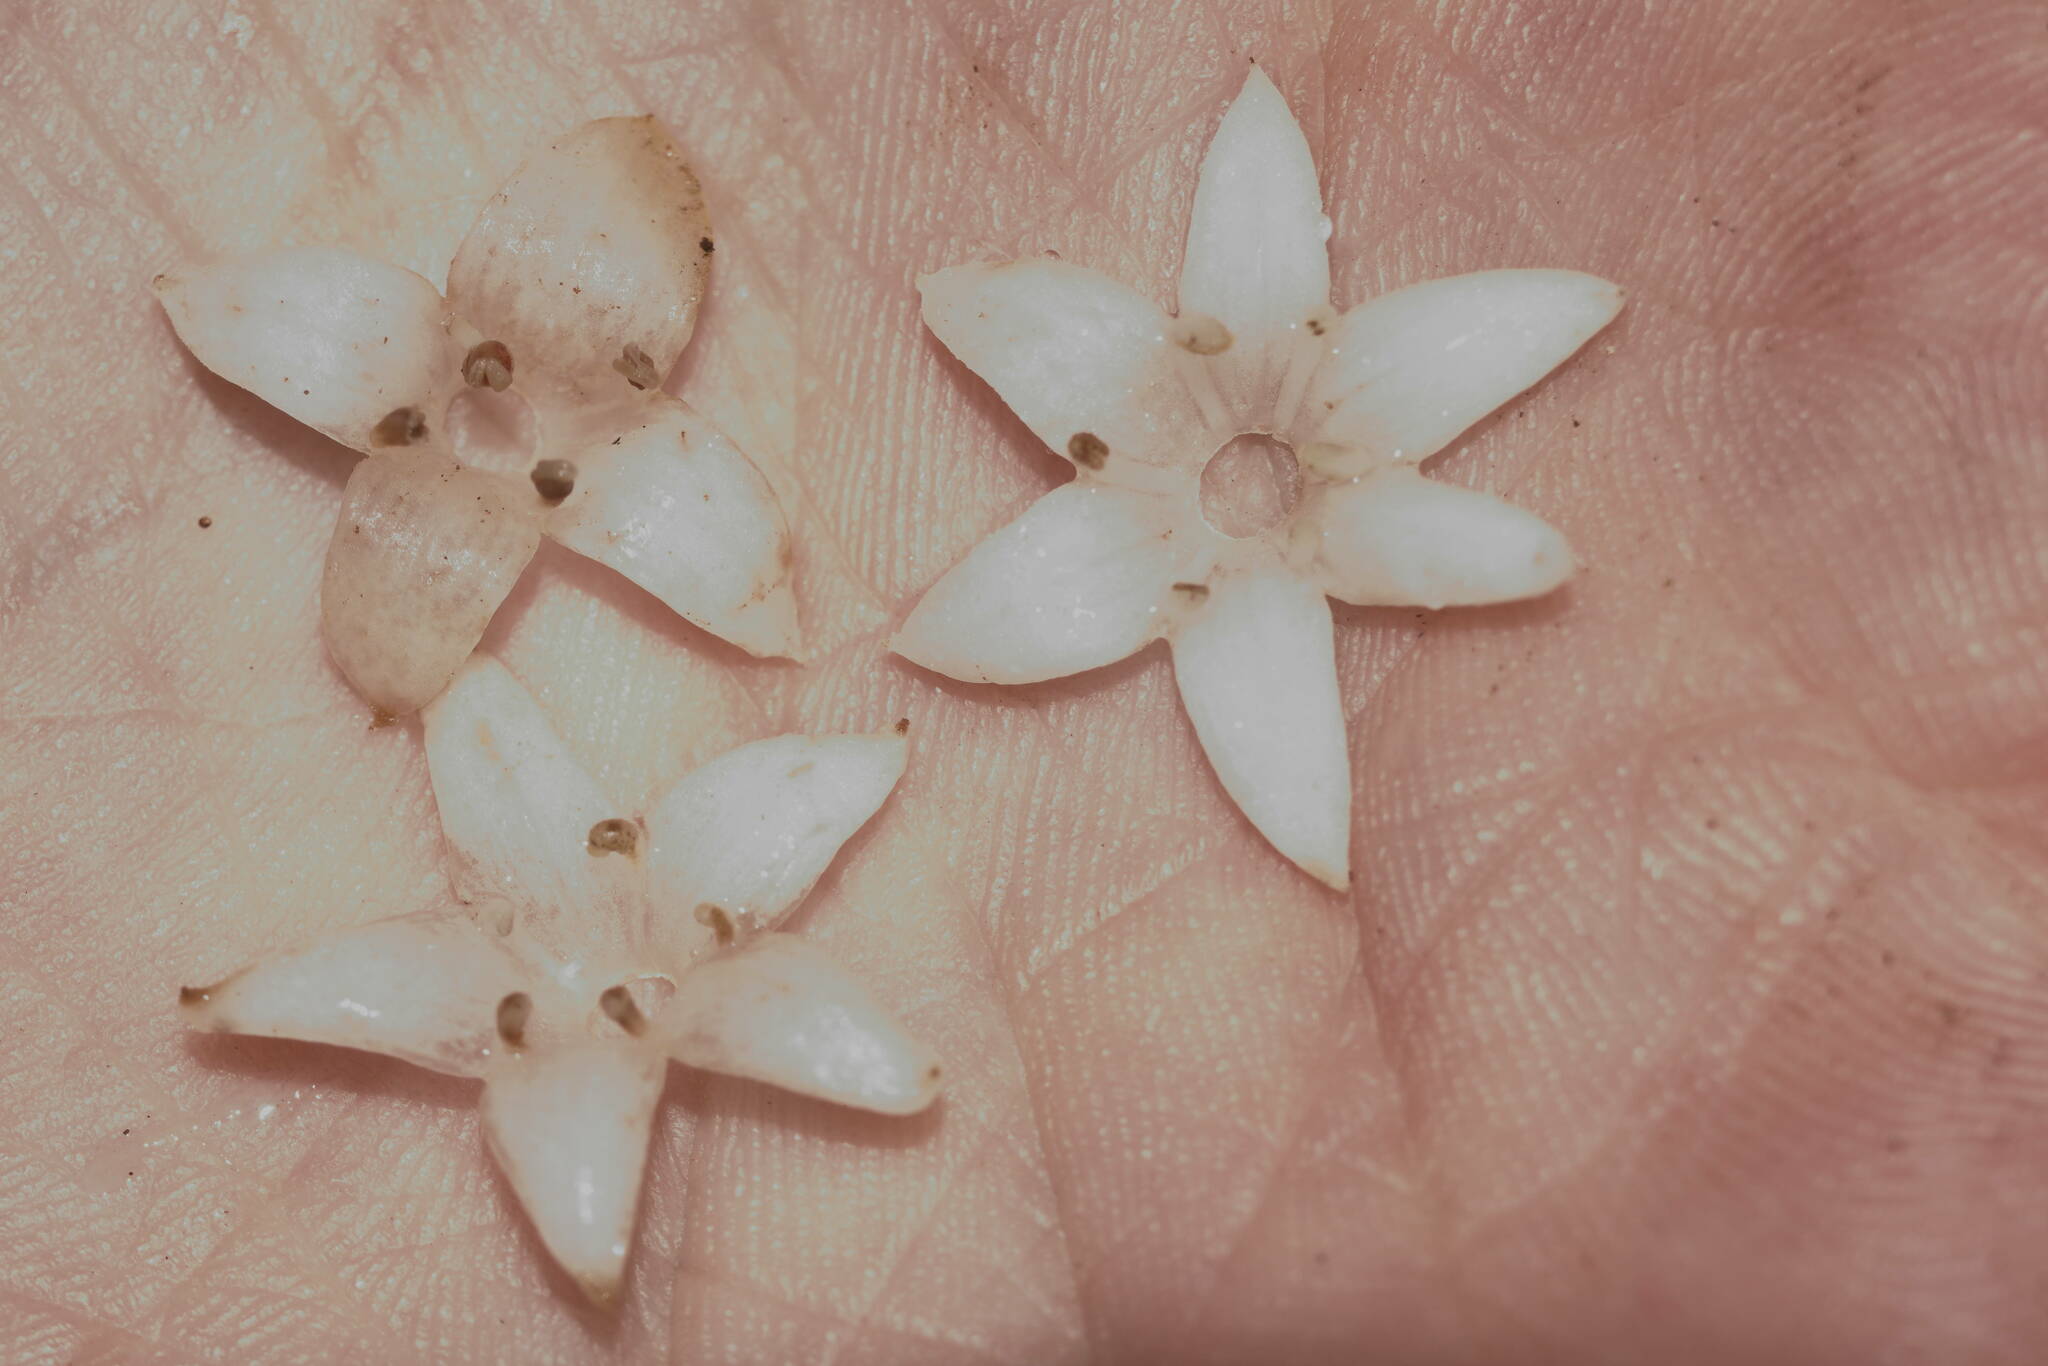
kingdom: Plantae
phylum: Tracheophyta
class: Magnoliopsida
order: Gentianales
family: Rubiaceae
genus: Psychotria
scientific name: Psychotria greenwelliae
